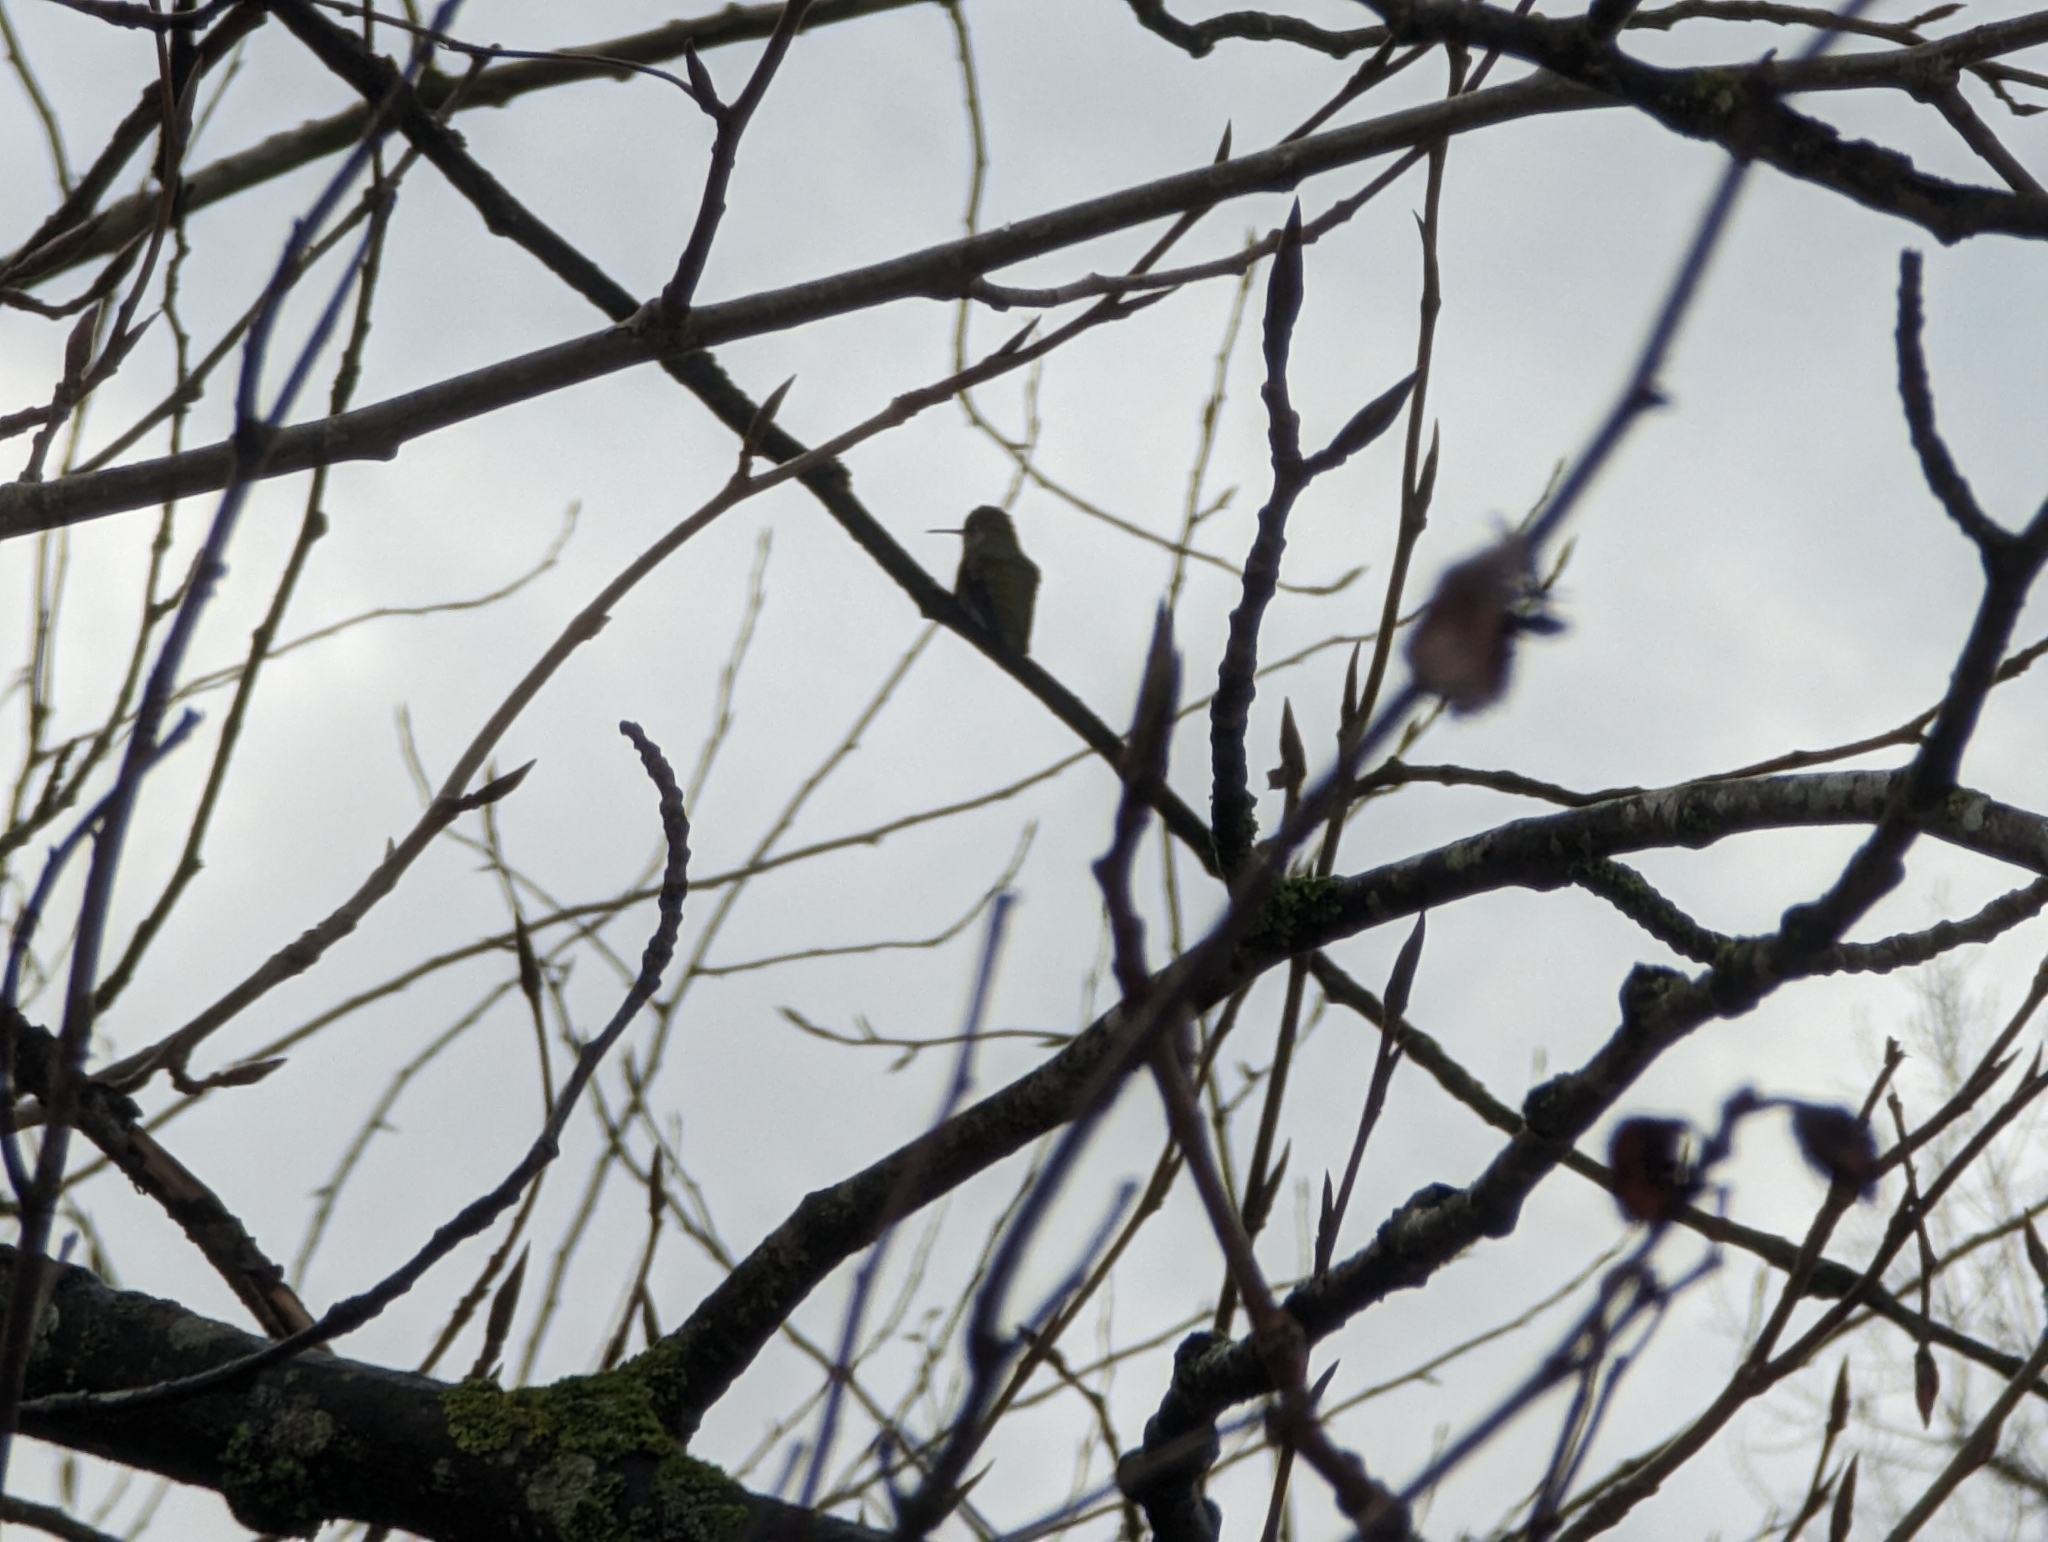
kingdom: Animalia
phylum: Chordata
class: Aves
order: Apodiformes
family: Trochilidae
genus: Calypte
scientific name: Calypte anna
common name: Anna's hummingbird
